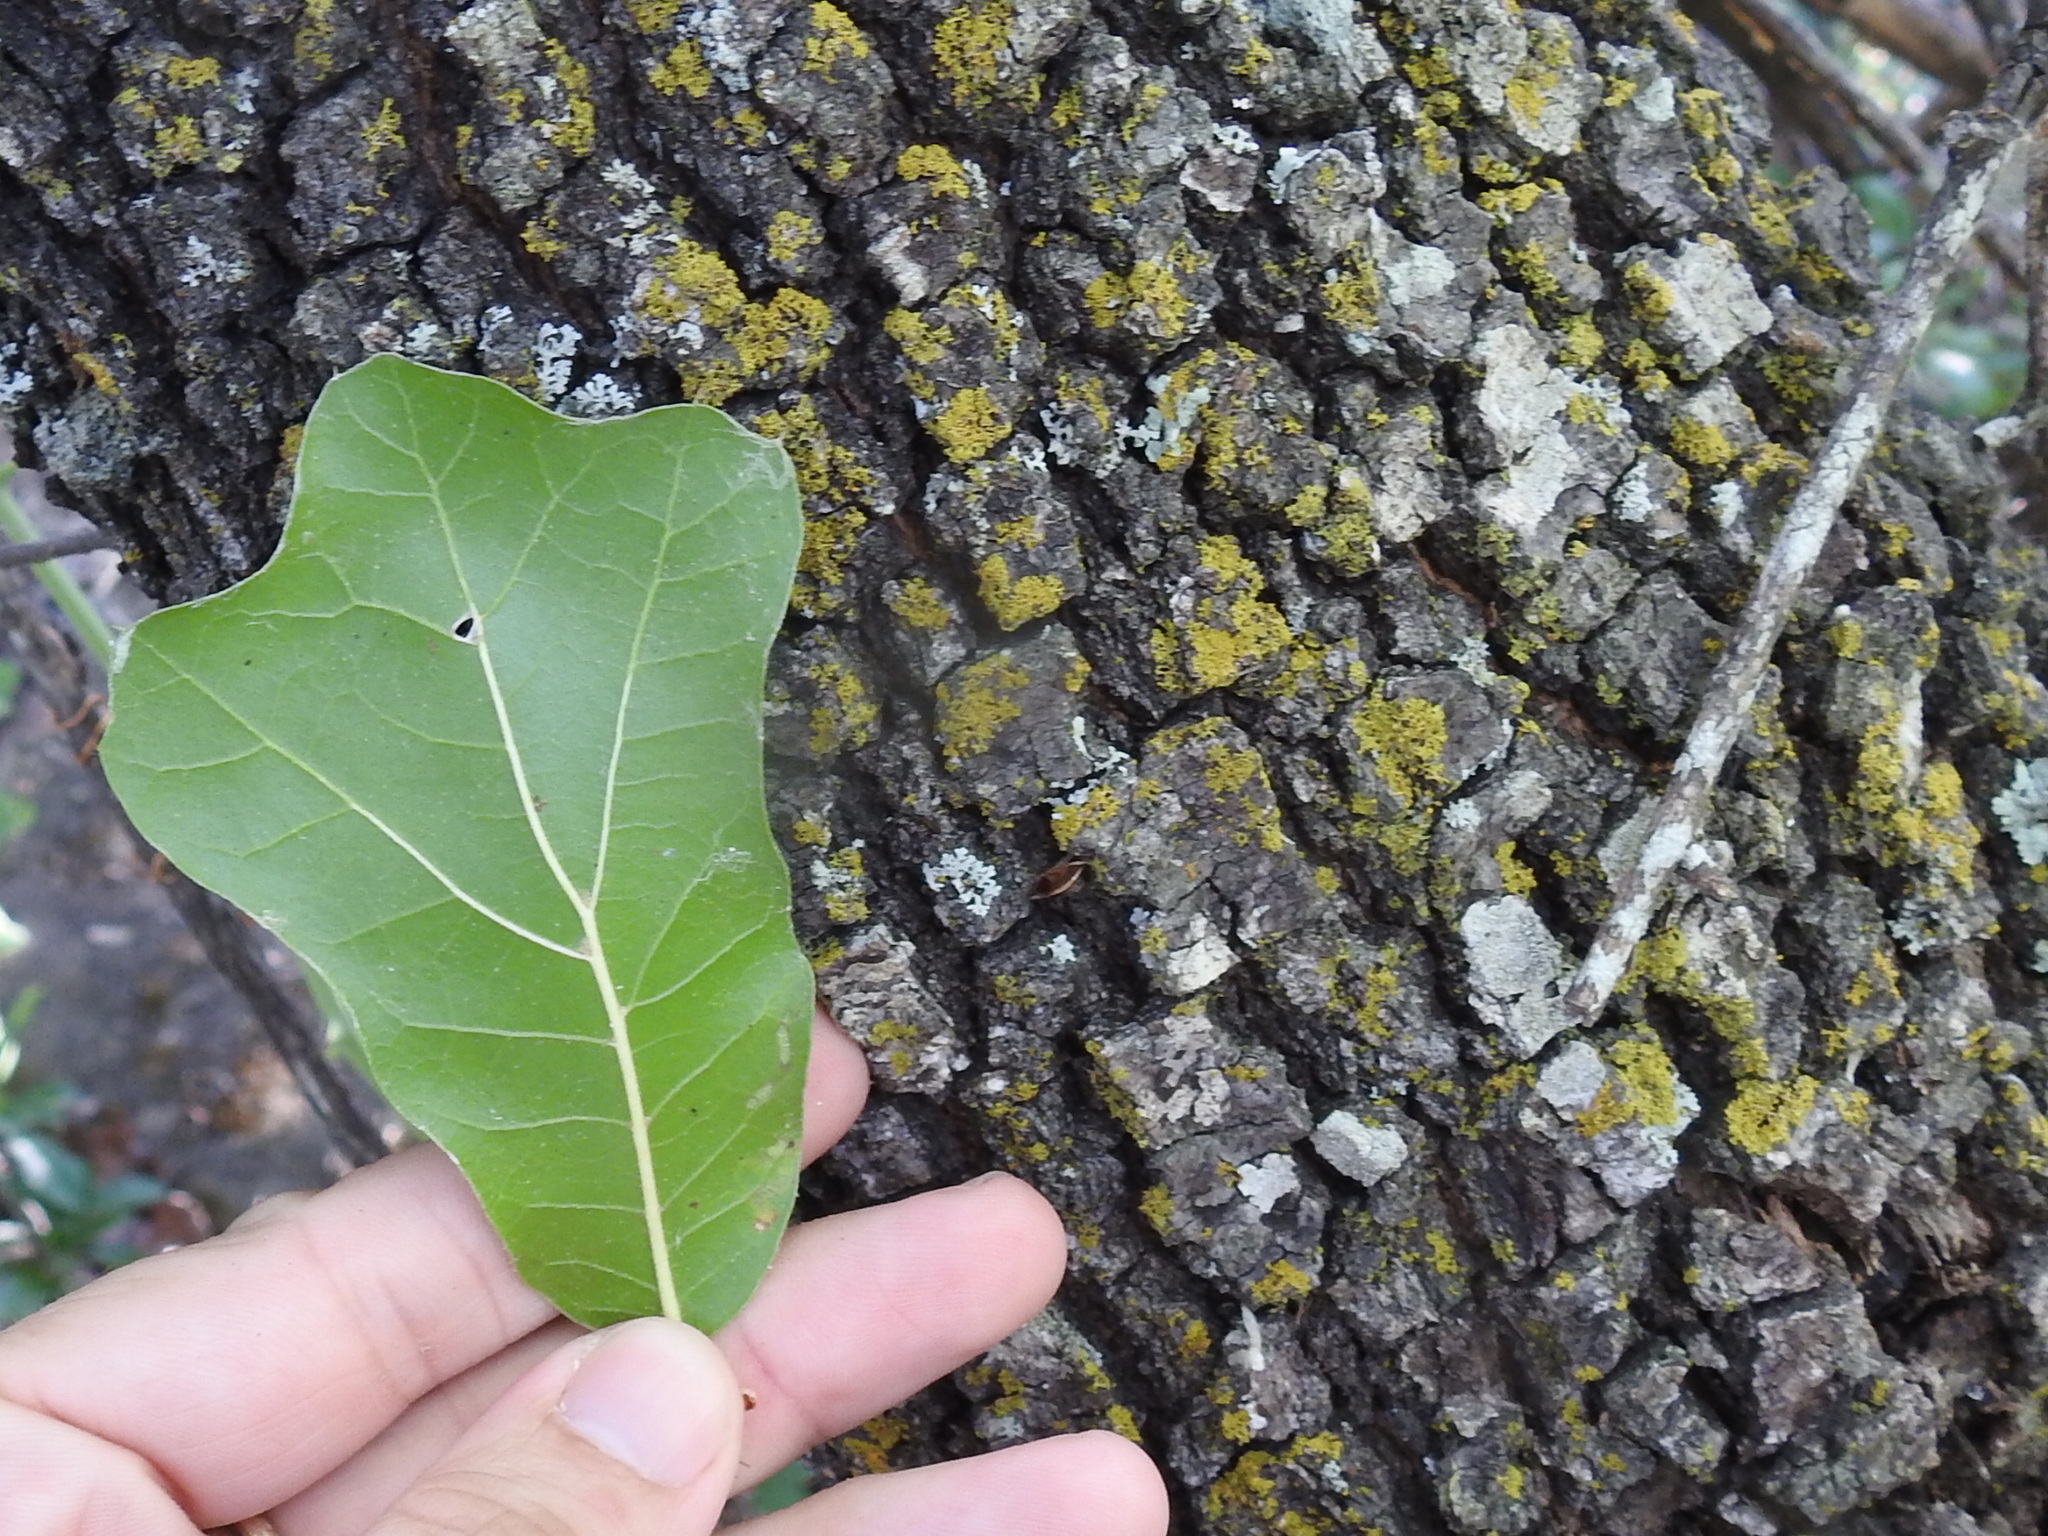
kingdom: Plantae
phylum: Tracheophyta
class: Magnoliopsida
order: Fagales
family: Fagaceae
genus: Quercus
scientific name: Quercus marilandica
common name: Blackjack oak
